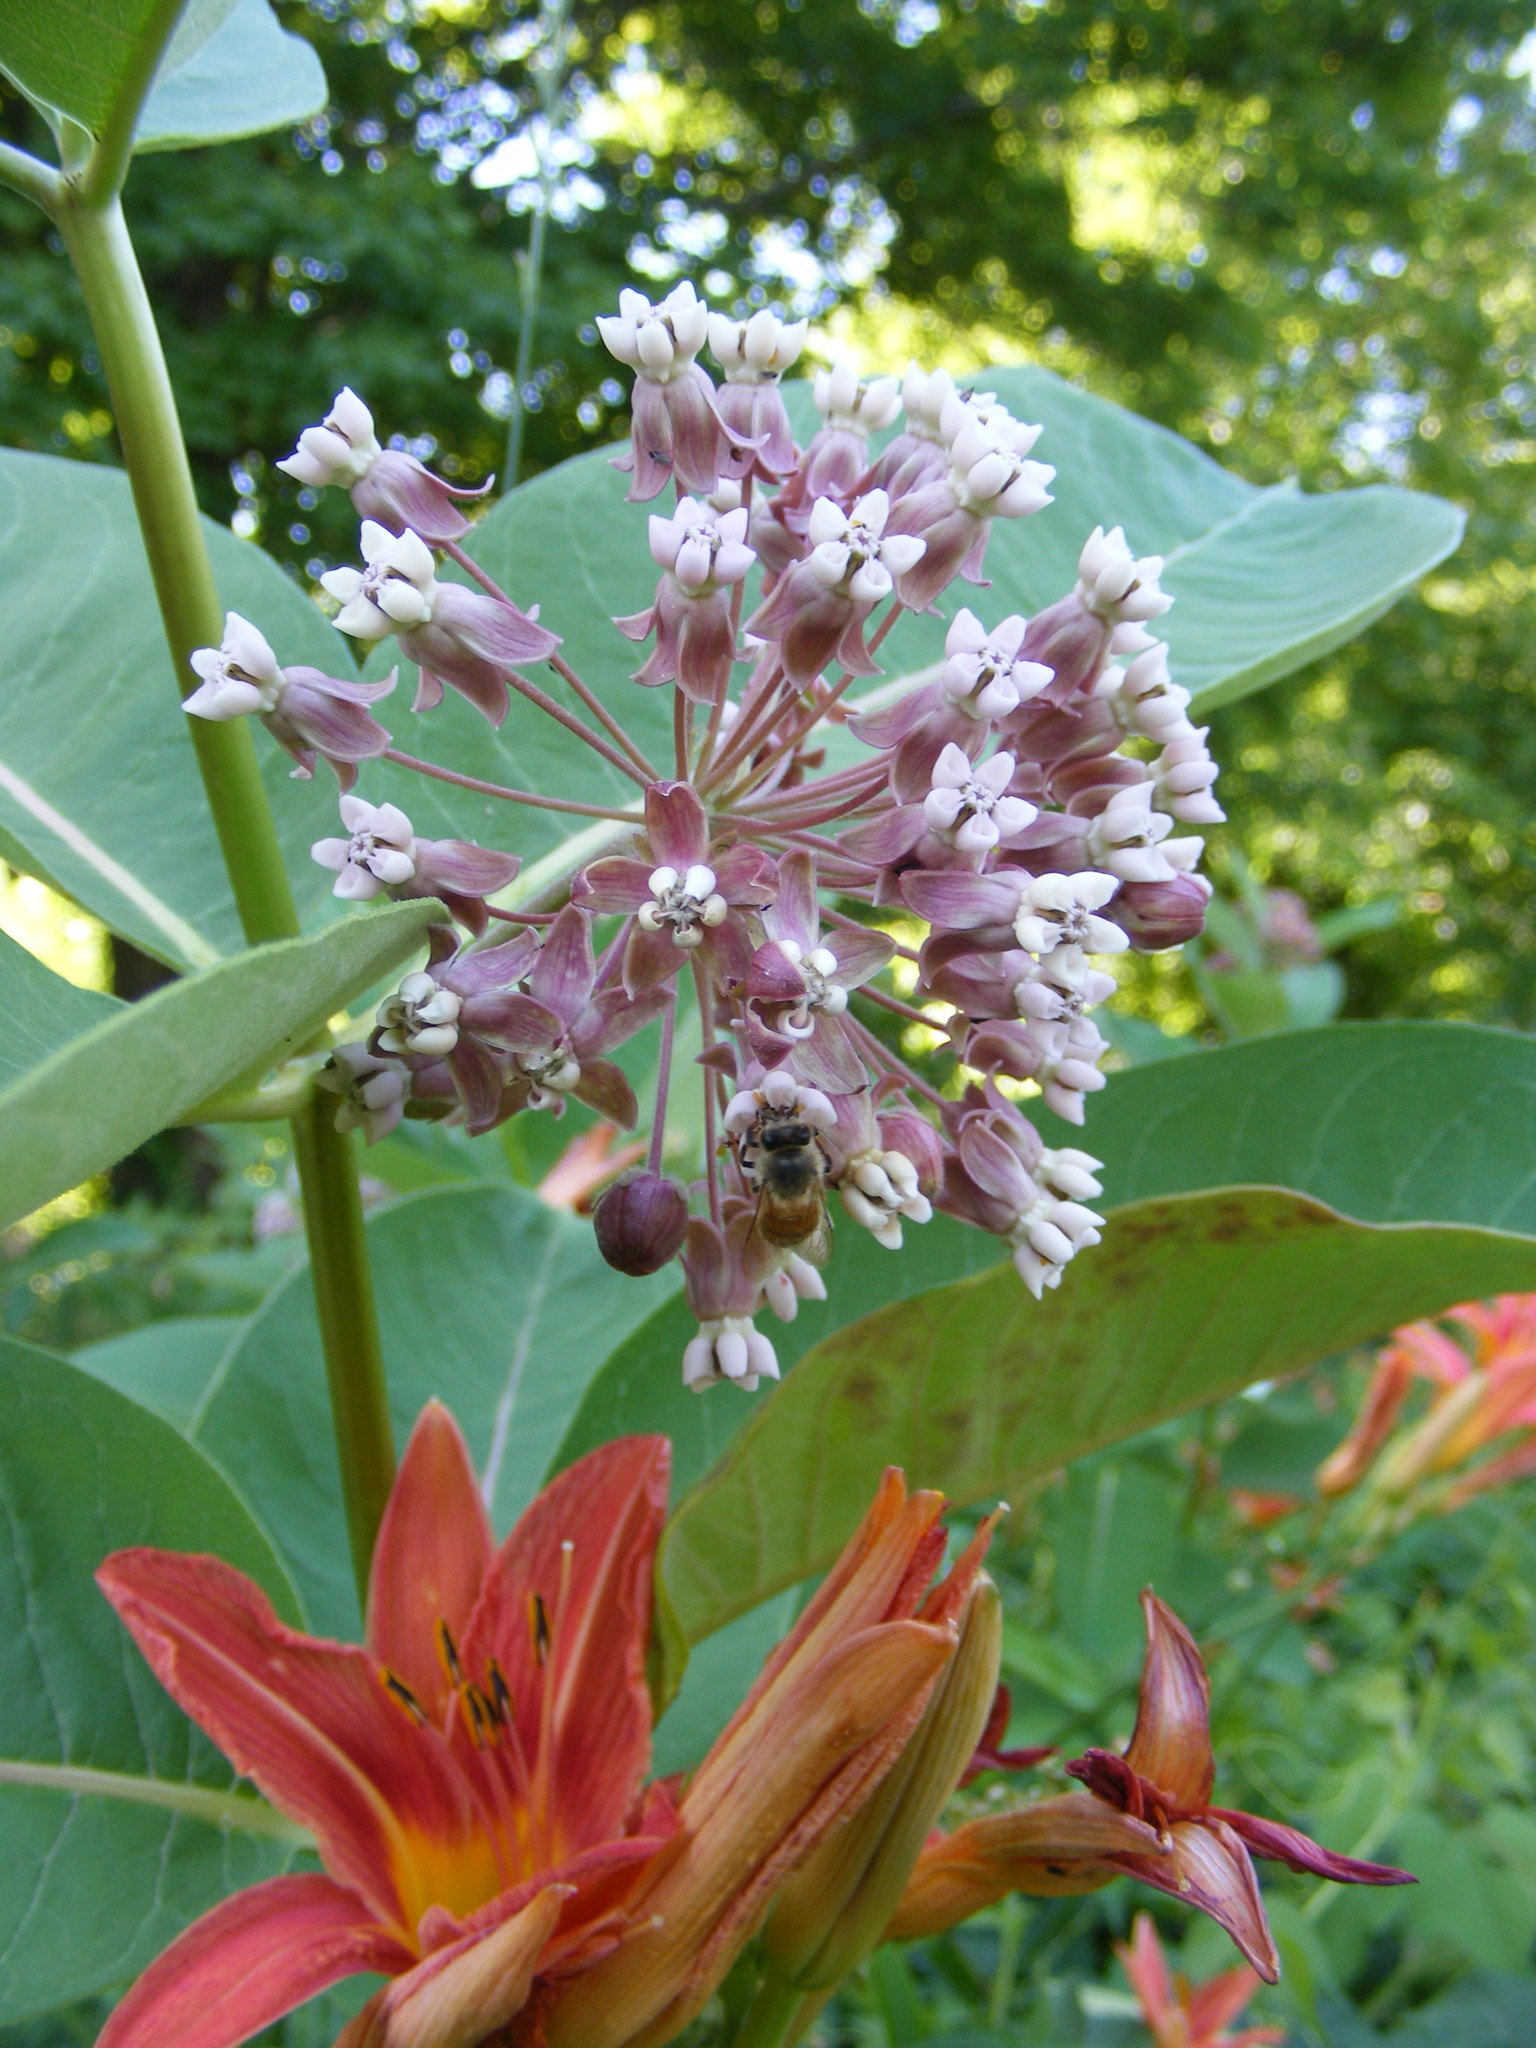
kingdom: Plantae
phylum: Tracheophyta
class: Magnoliopsida
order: Gentianales
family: Apocynaceae
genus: Asclepias
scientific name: Asclepias syriaca
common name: Common milkweed
